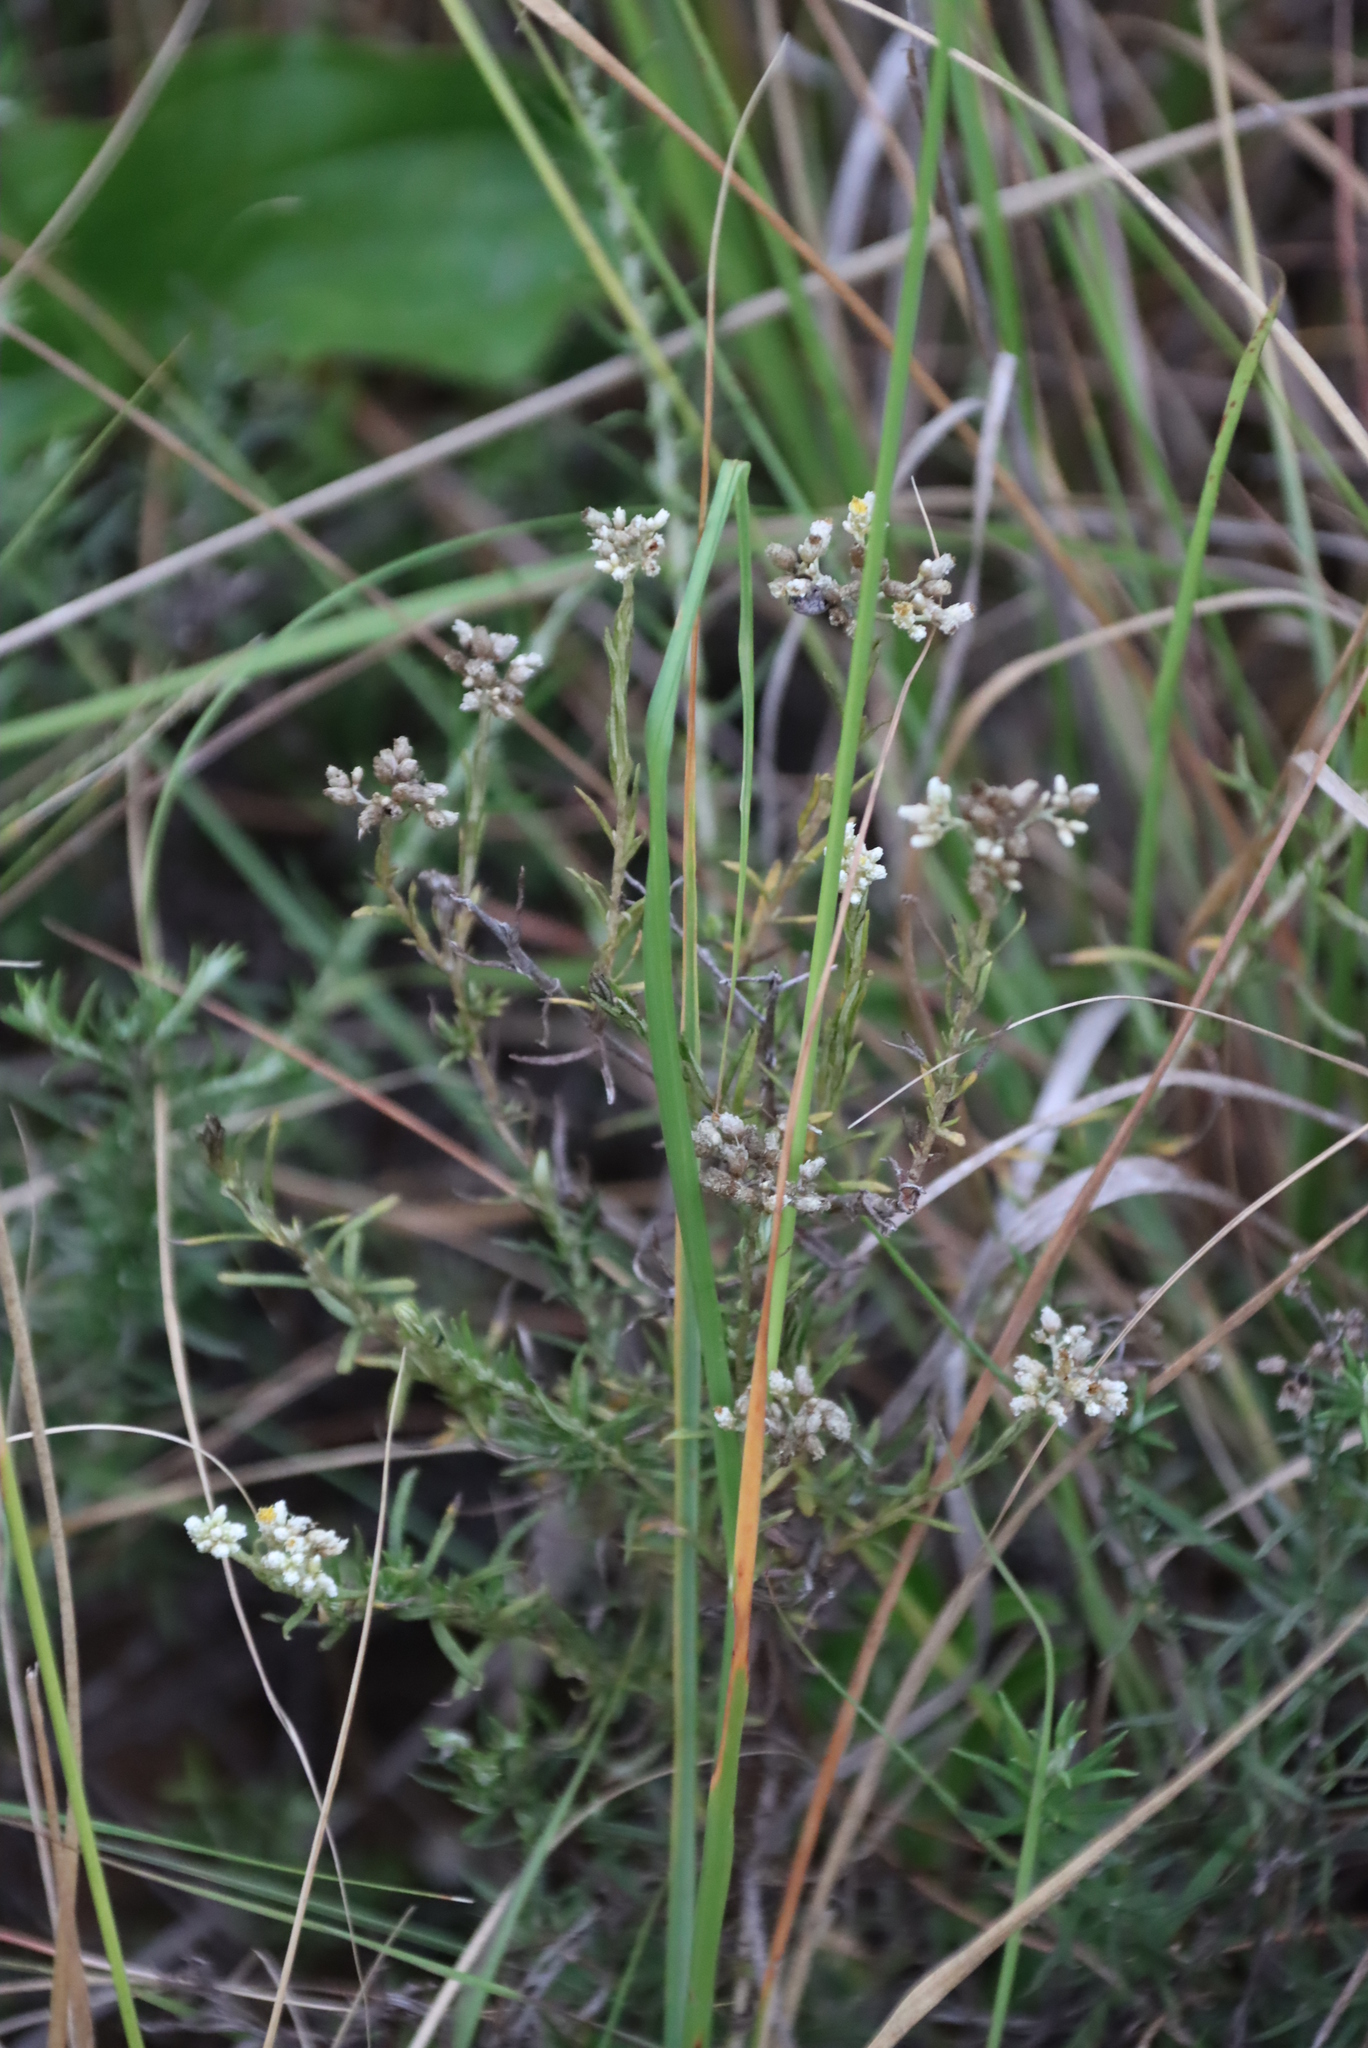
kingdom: Plantae
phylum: Tracheophyta
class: Magnoliopsida
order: Asterales
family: Asteraceae
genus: Helichrysum
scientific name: Helichrysum rugulosum
